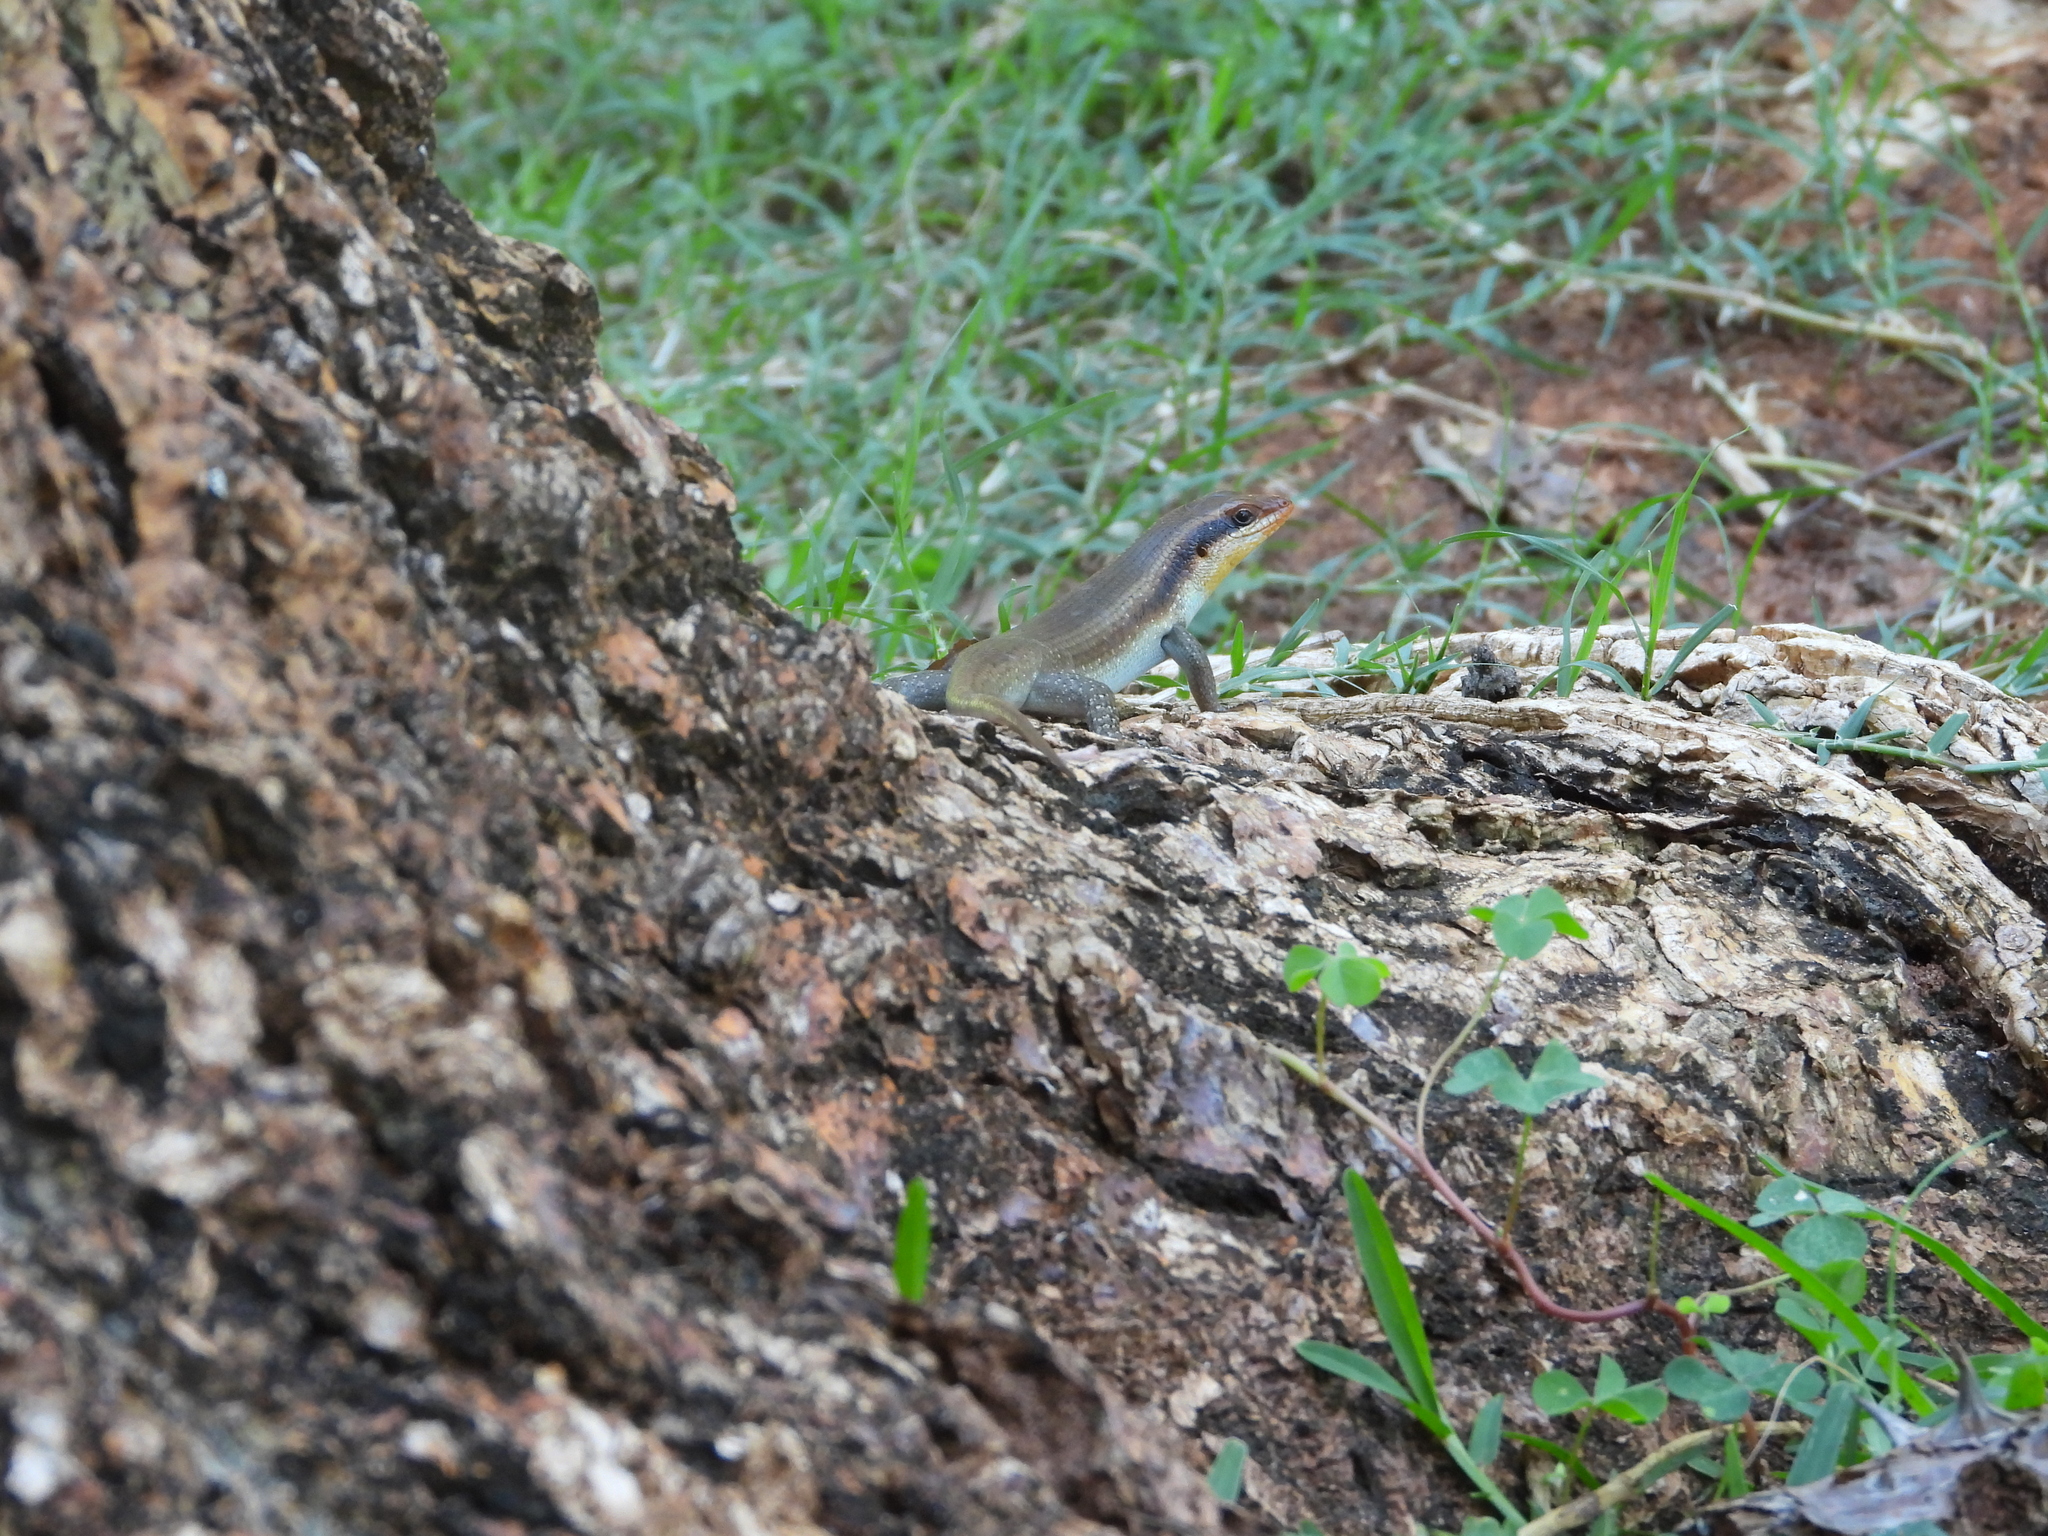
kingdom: Animalia
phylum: Chordata
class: Squamata
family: Scincidae
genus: Trachylepis
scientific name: Trachylepis wahlbergii
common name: Wahlberg’s striped skink
